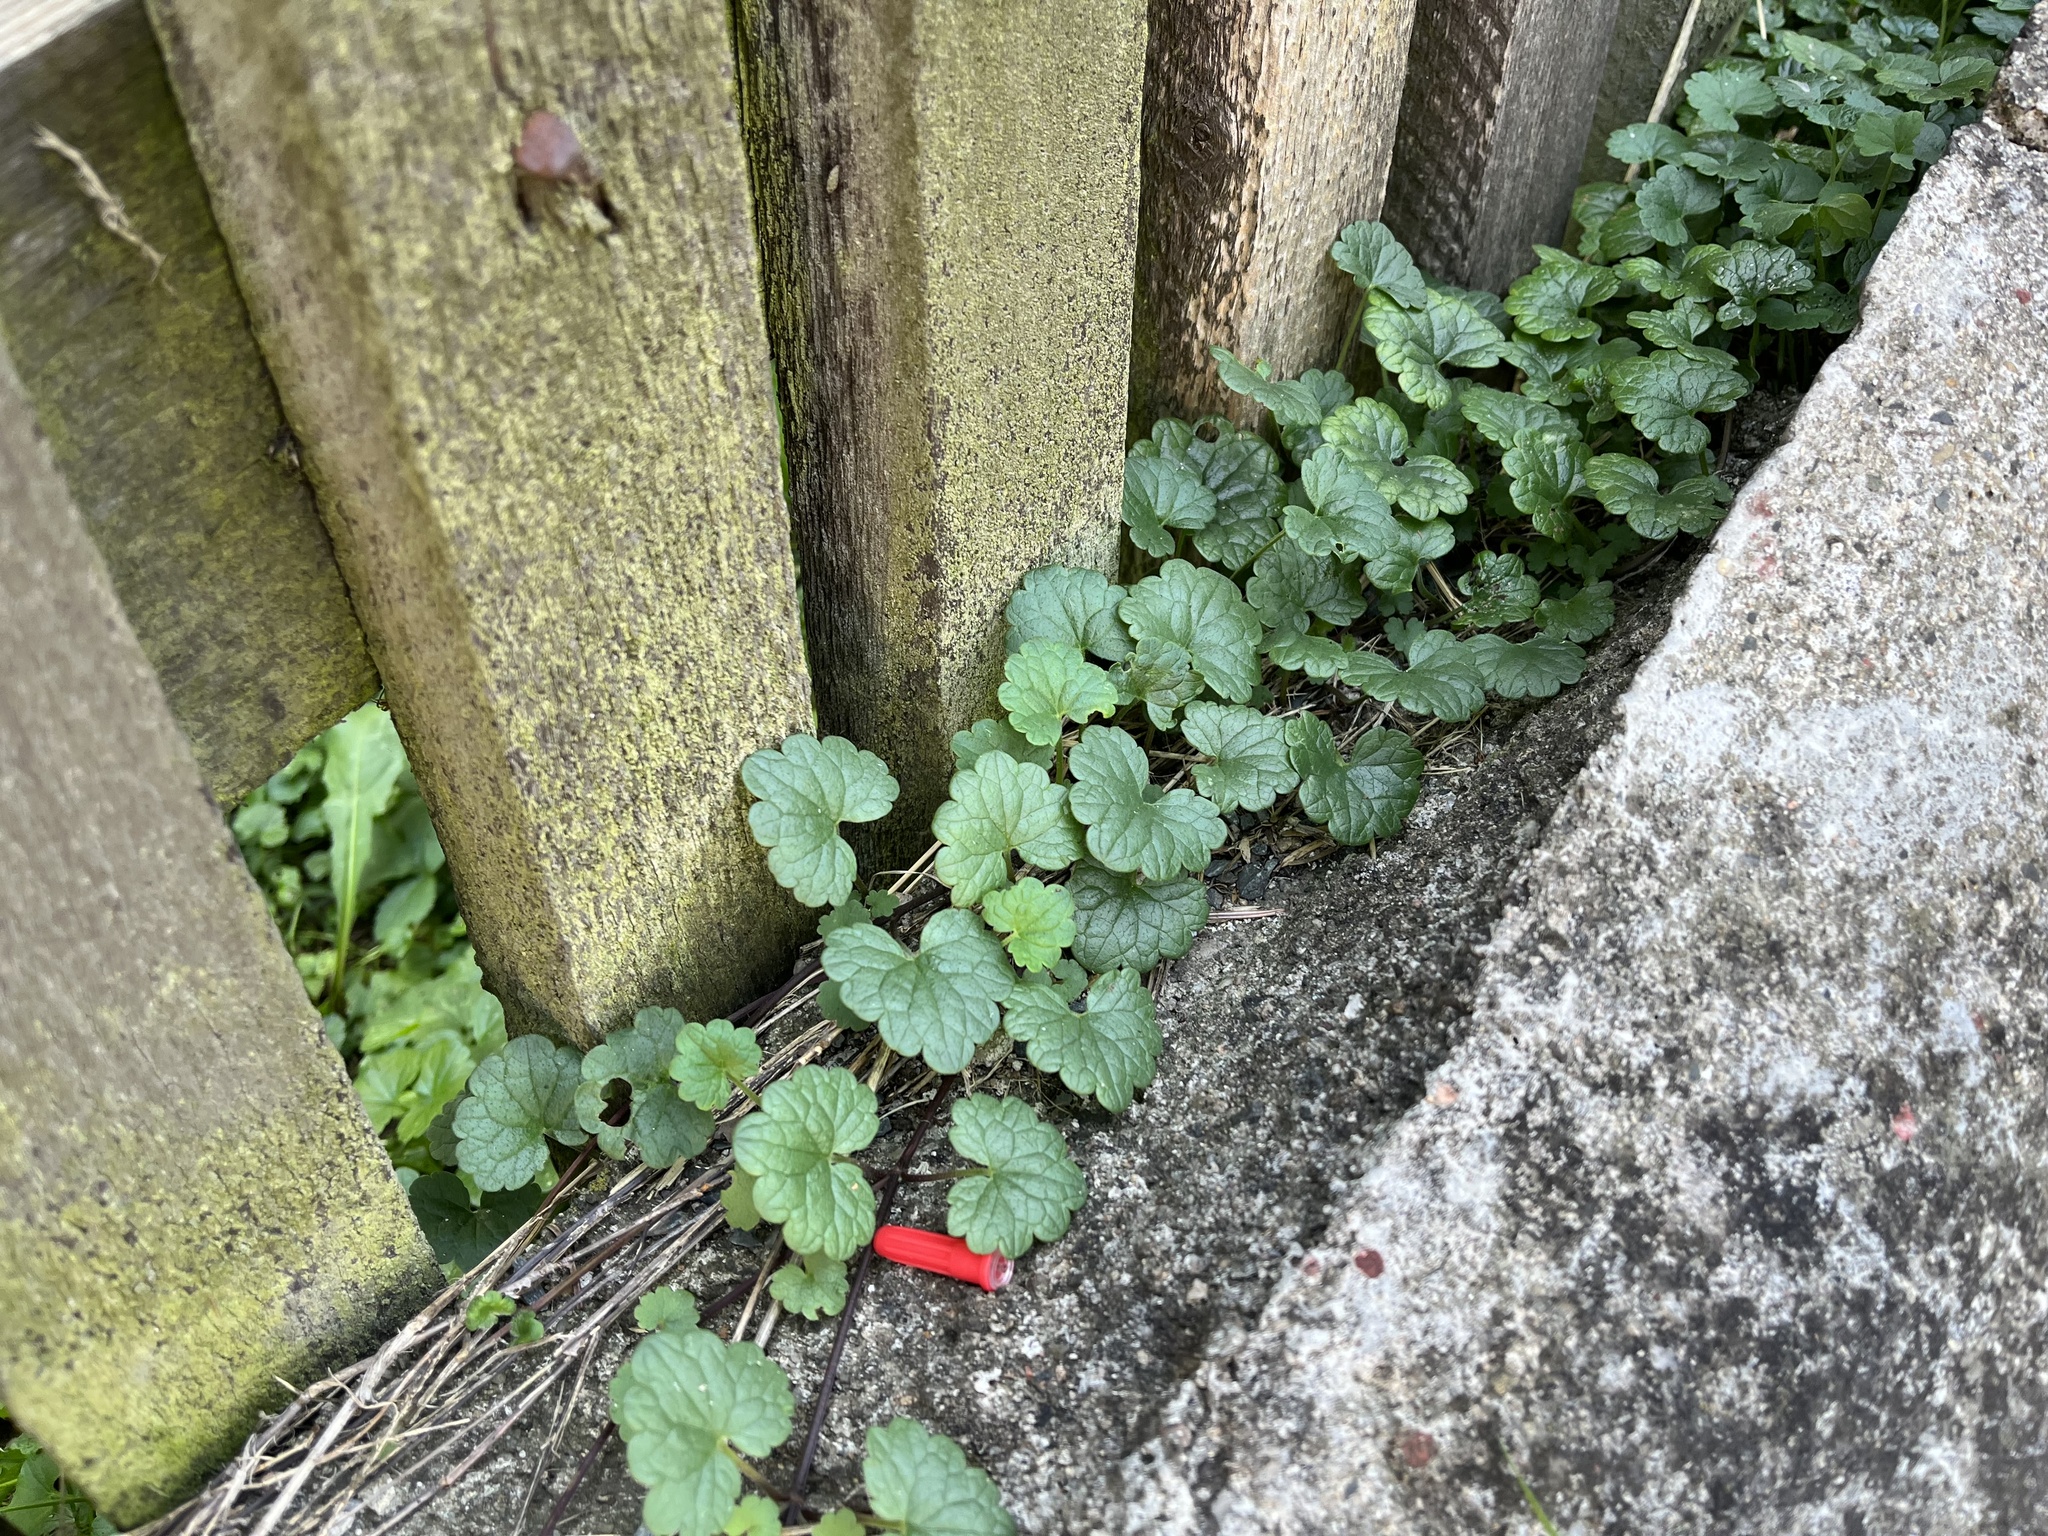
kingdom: Plantae
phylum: Tracheophyta
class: Magnoliopsida
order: Lamiales
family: Lamiaceae
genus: Glechoma
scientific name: Glechoma hederacea
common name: Ground ivy
